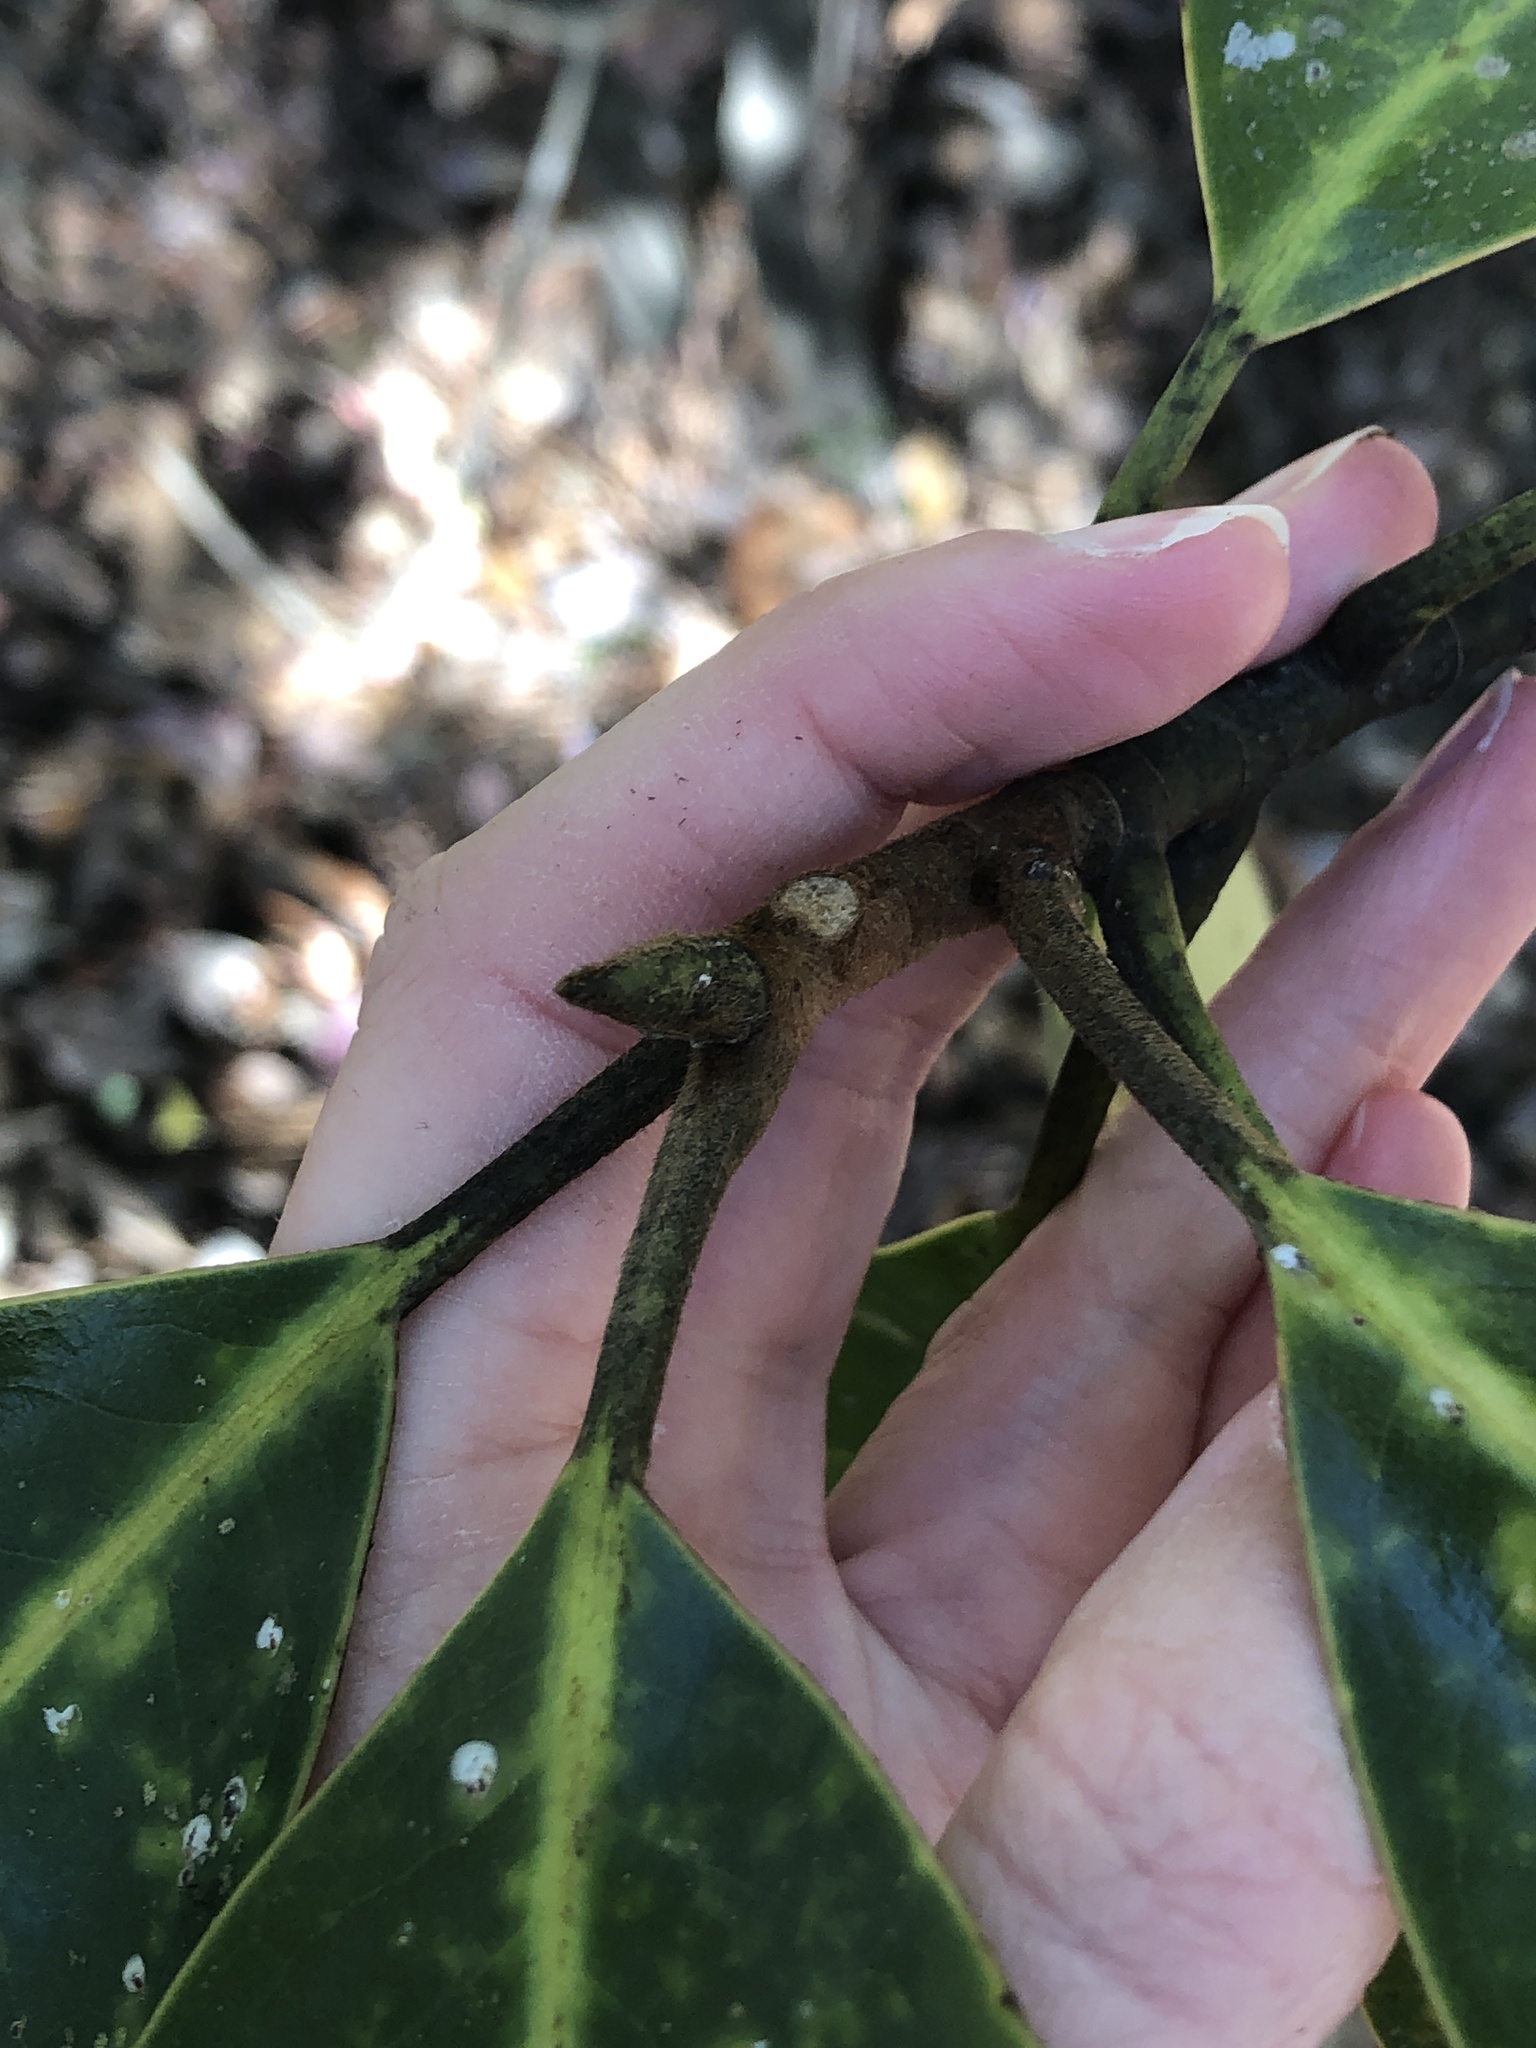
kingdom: Plantae
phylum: Tracheophyta
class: Magnoliopsida
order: Magnoliales
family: Magnoliaceae
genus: Magnolia
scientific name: Magnolia grandiflora
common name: Southern magnolia
